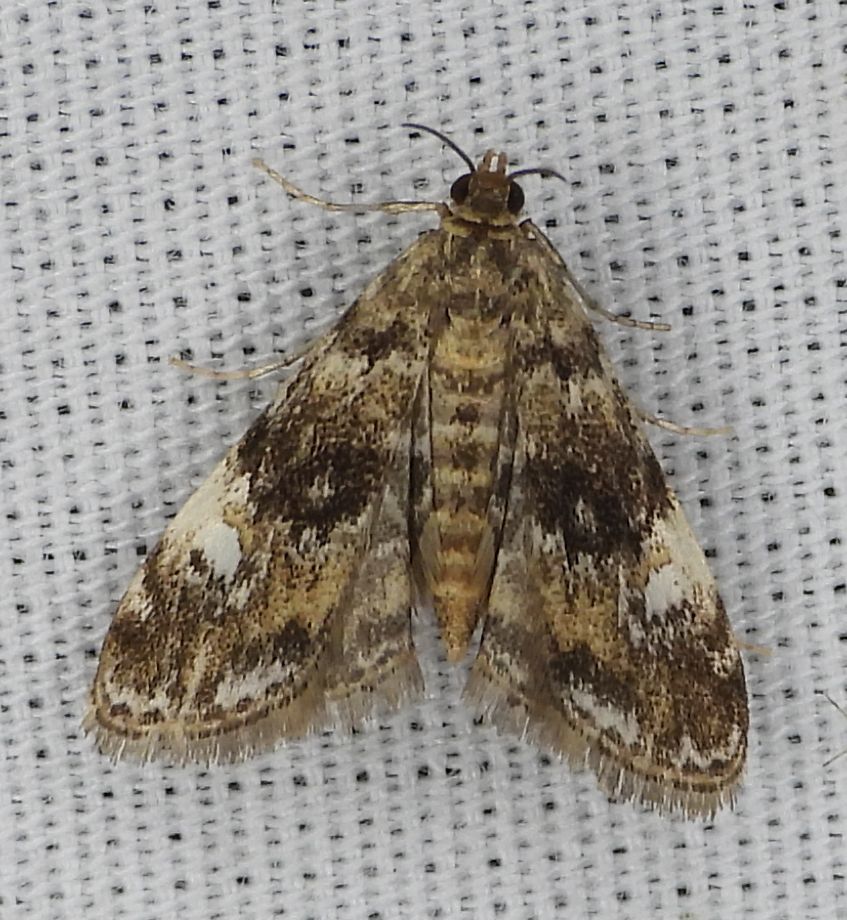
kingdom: Animalia
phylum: Arthropoda
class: Insecta
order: Lepidoptera
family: Crambidae
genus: Elophila
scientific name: Elophila obliteralis
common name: Waterlily leafcutter moth
